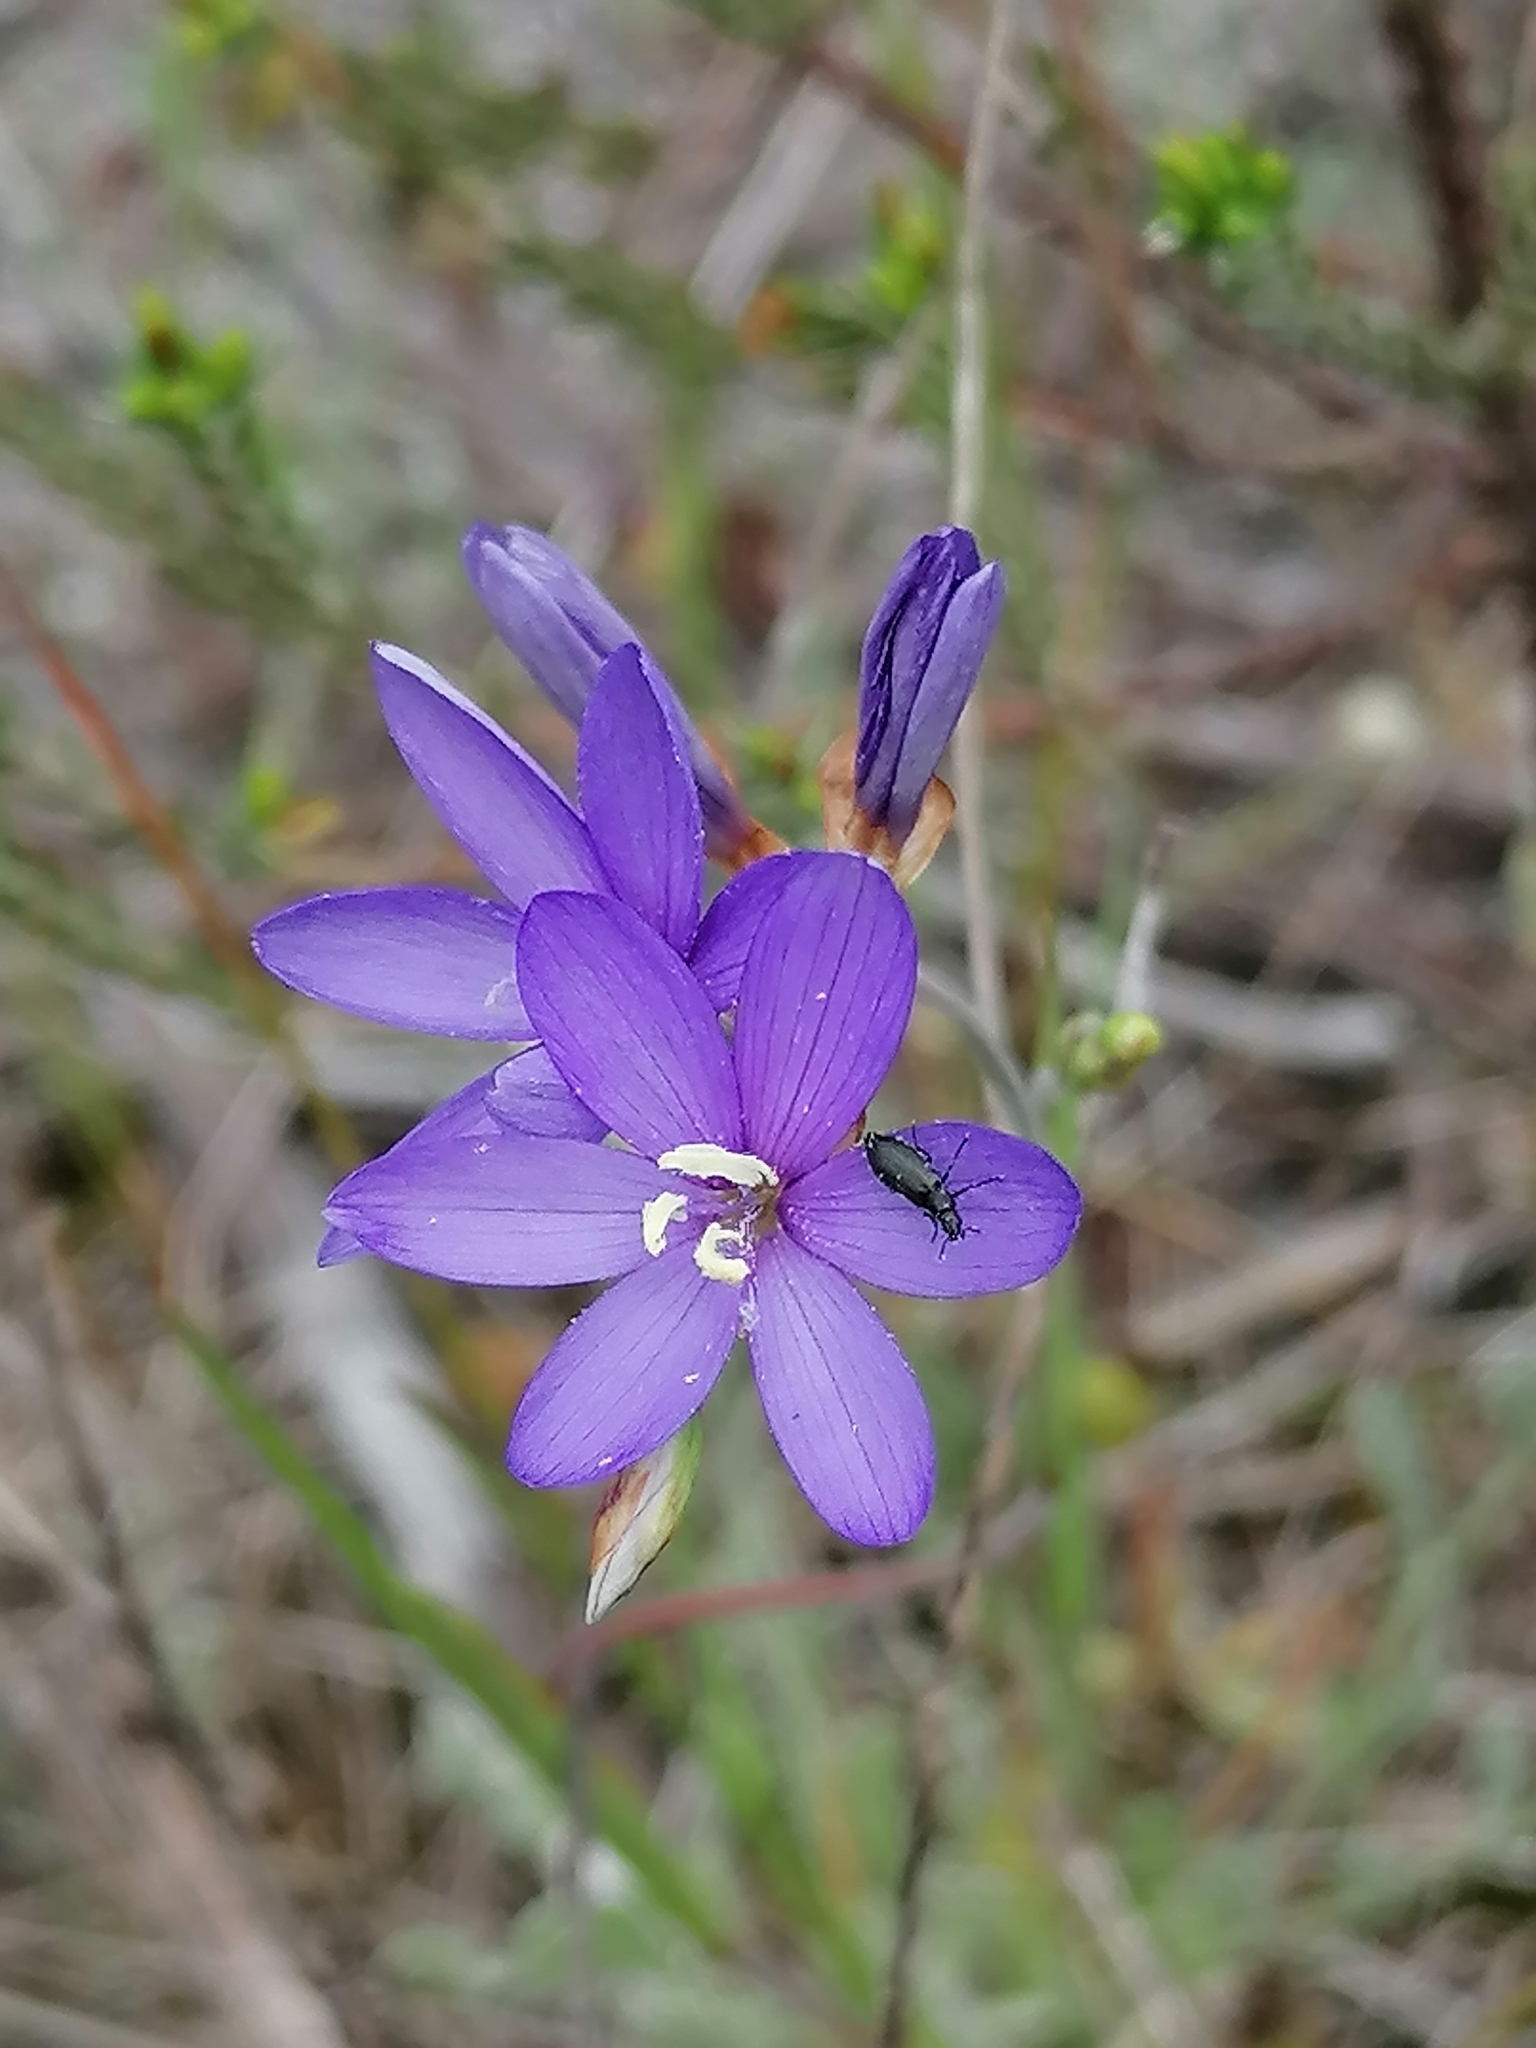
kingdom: Plantae
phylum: Tracheophyta
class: Liliopsida
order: Asparagales
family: Iridaceae
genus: Geissorhiza
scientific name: Geissorhiza aspera
